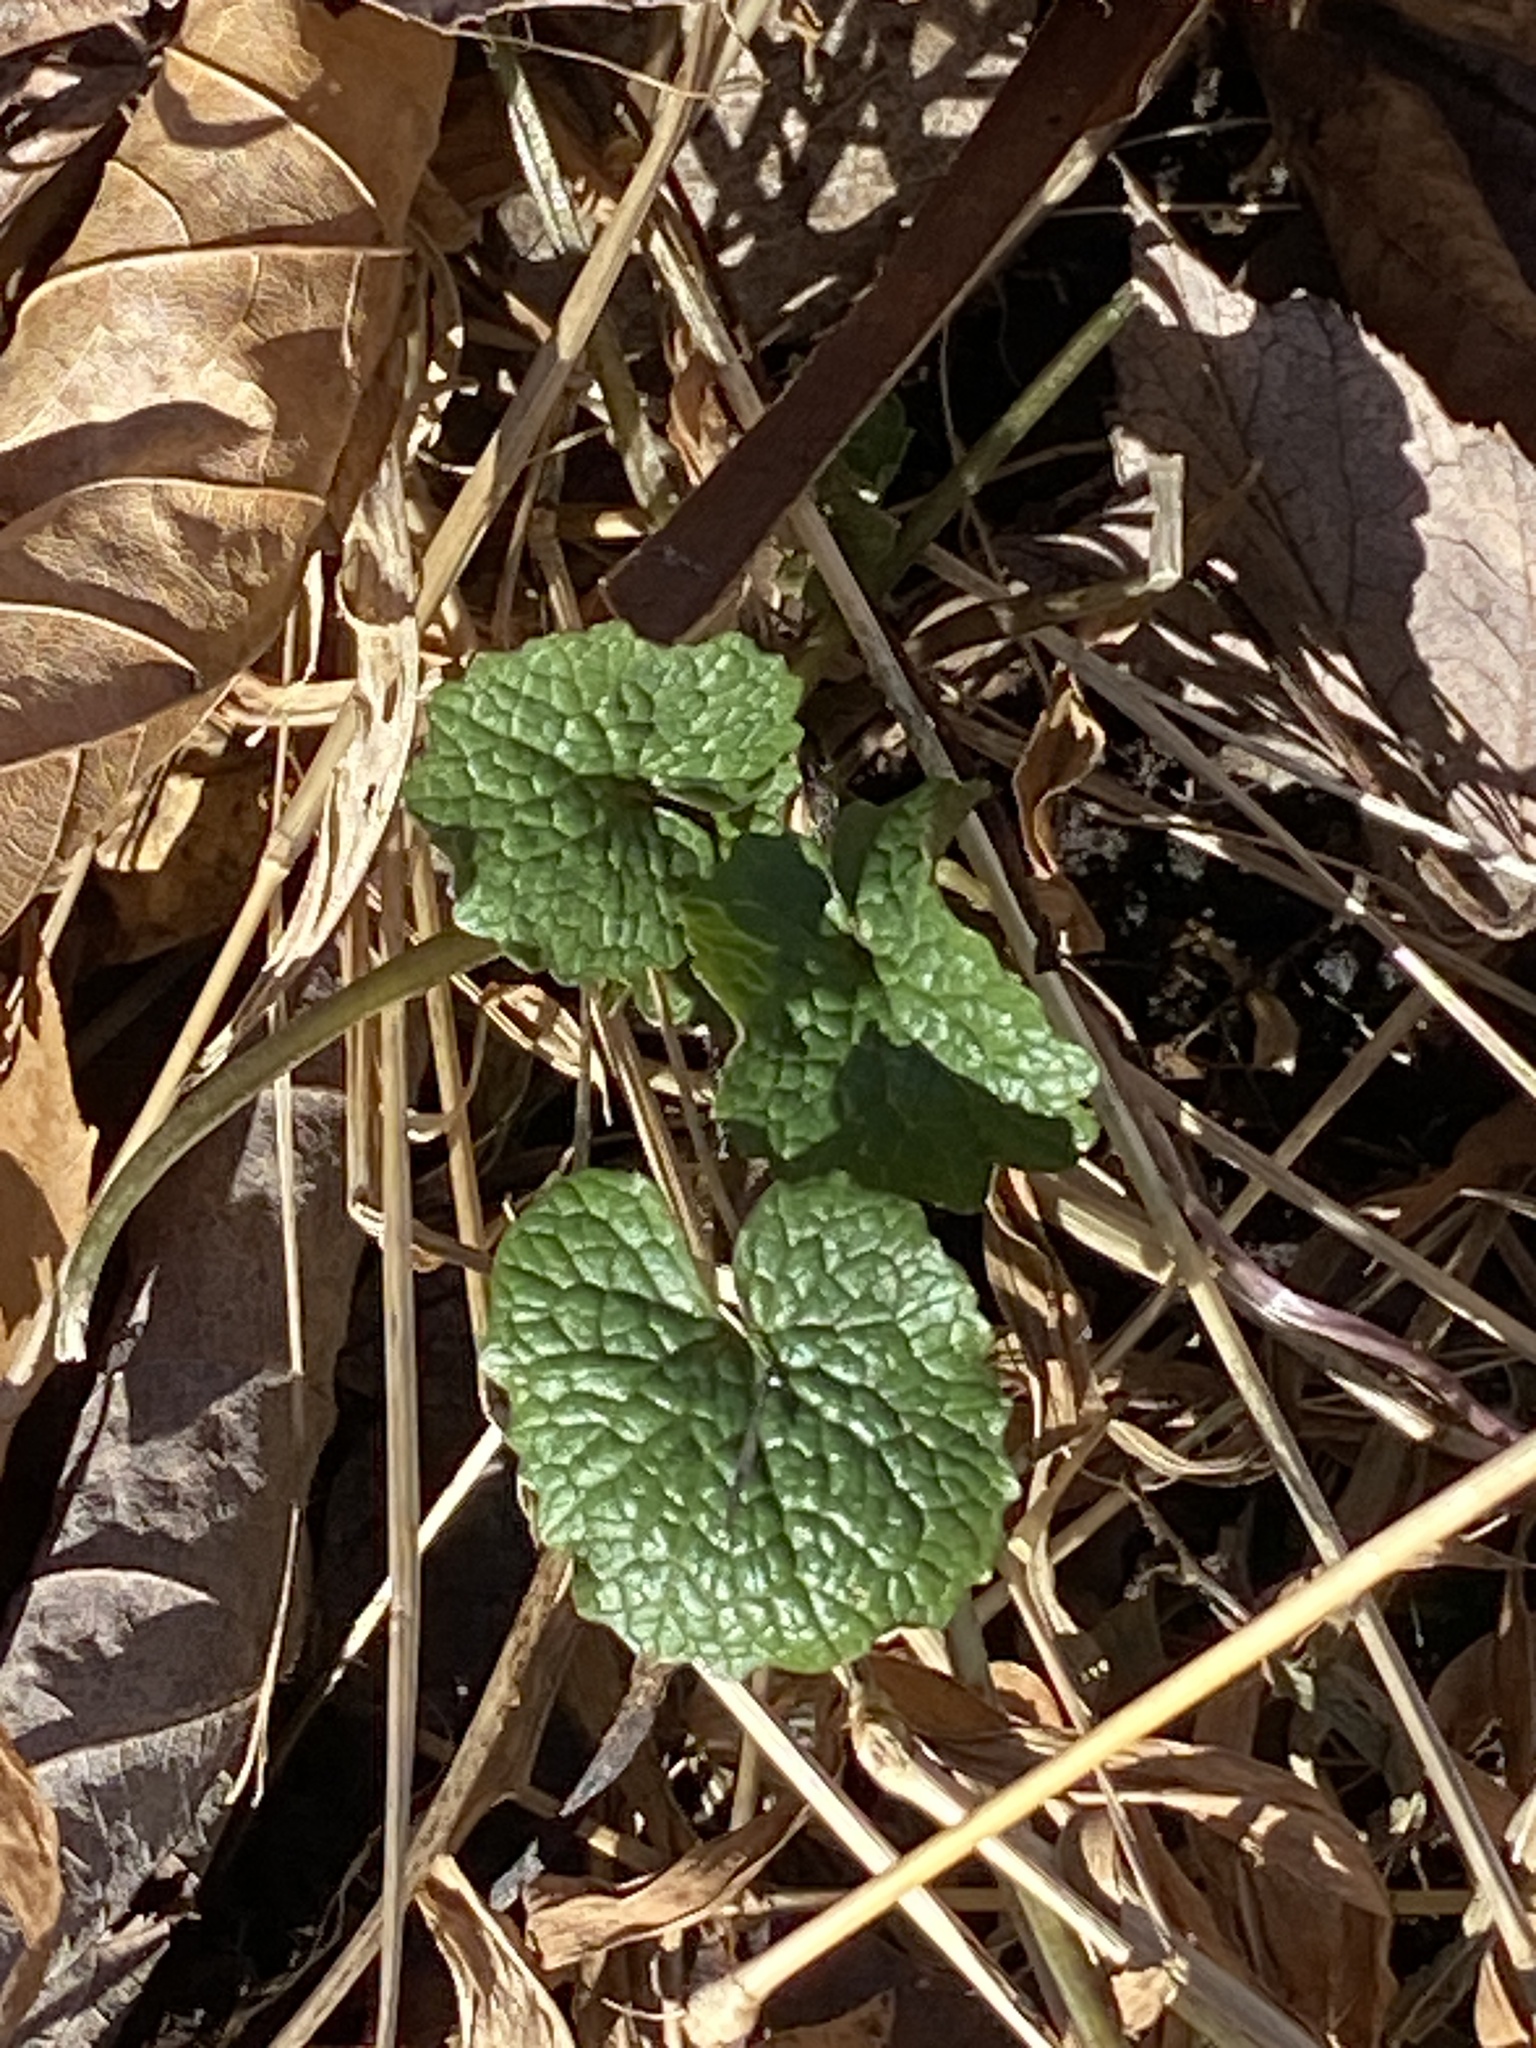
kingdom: Plantae
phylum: Tracheophyta
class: Magnoliopsida
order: Brassicales
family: Brassicaceae
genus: Alliaria
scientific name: Alliaria petiolata
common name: Garlic mustard
